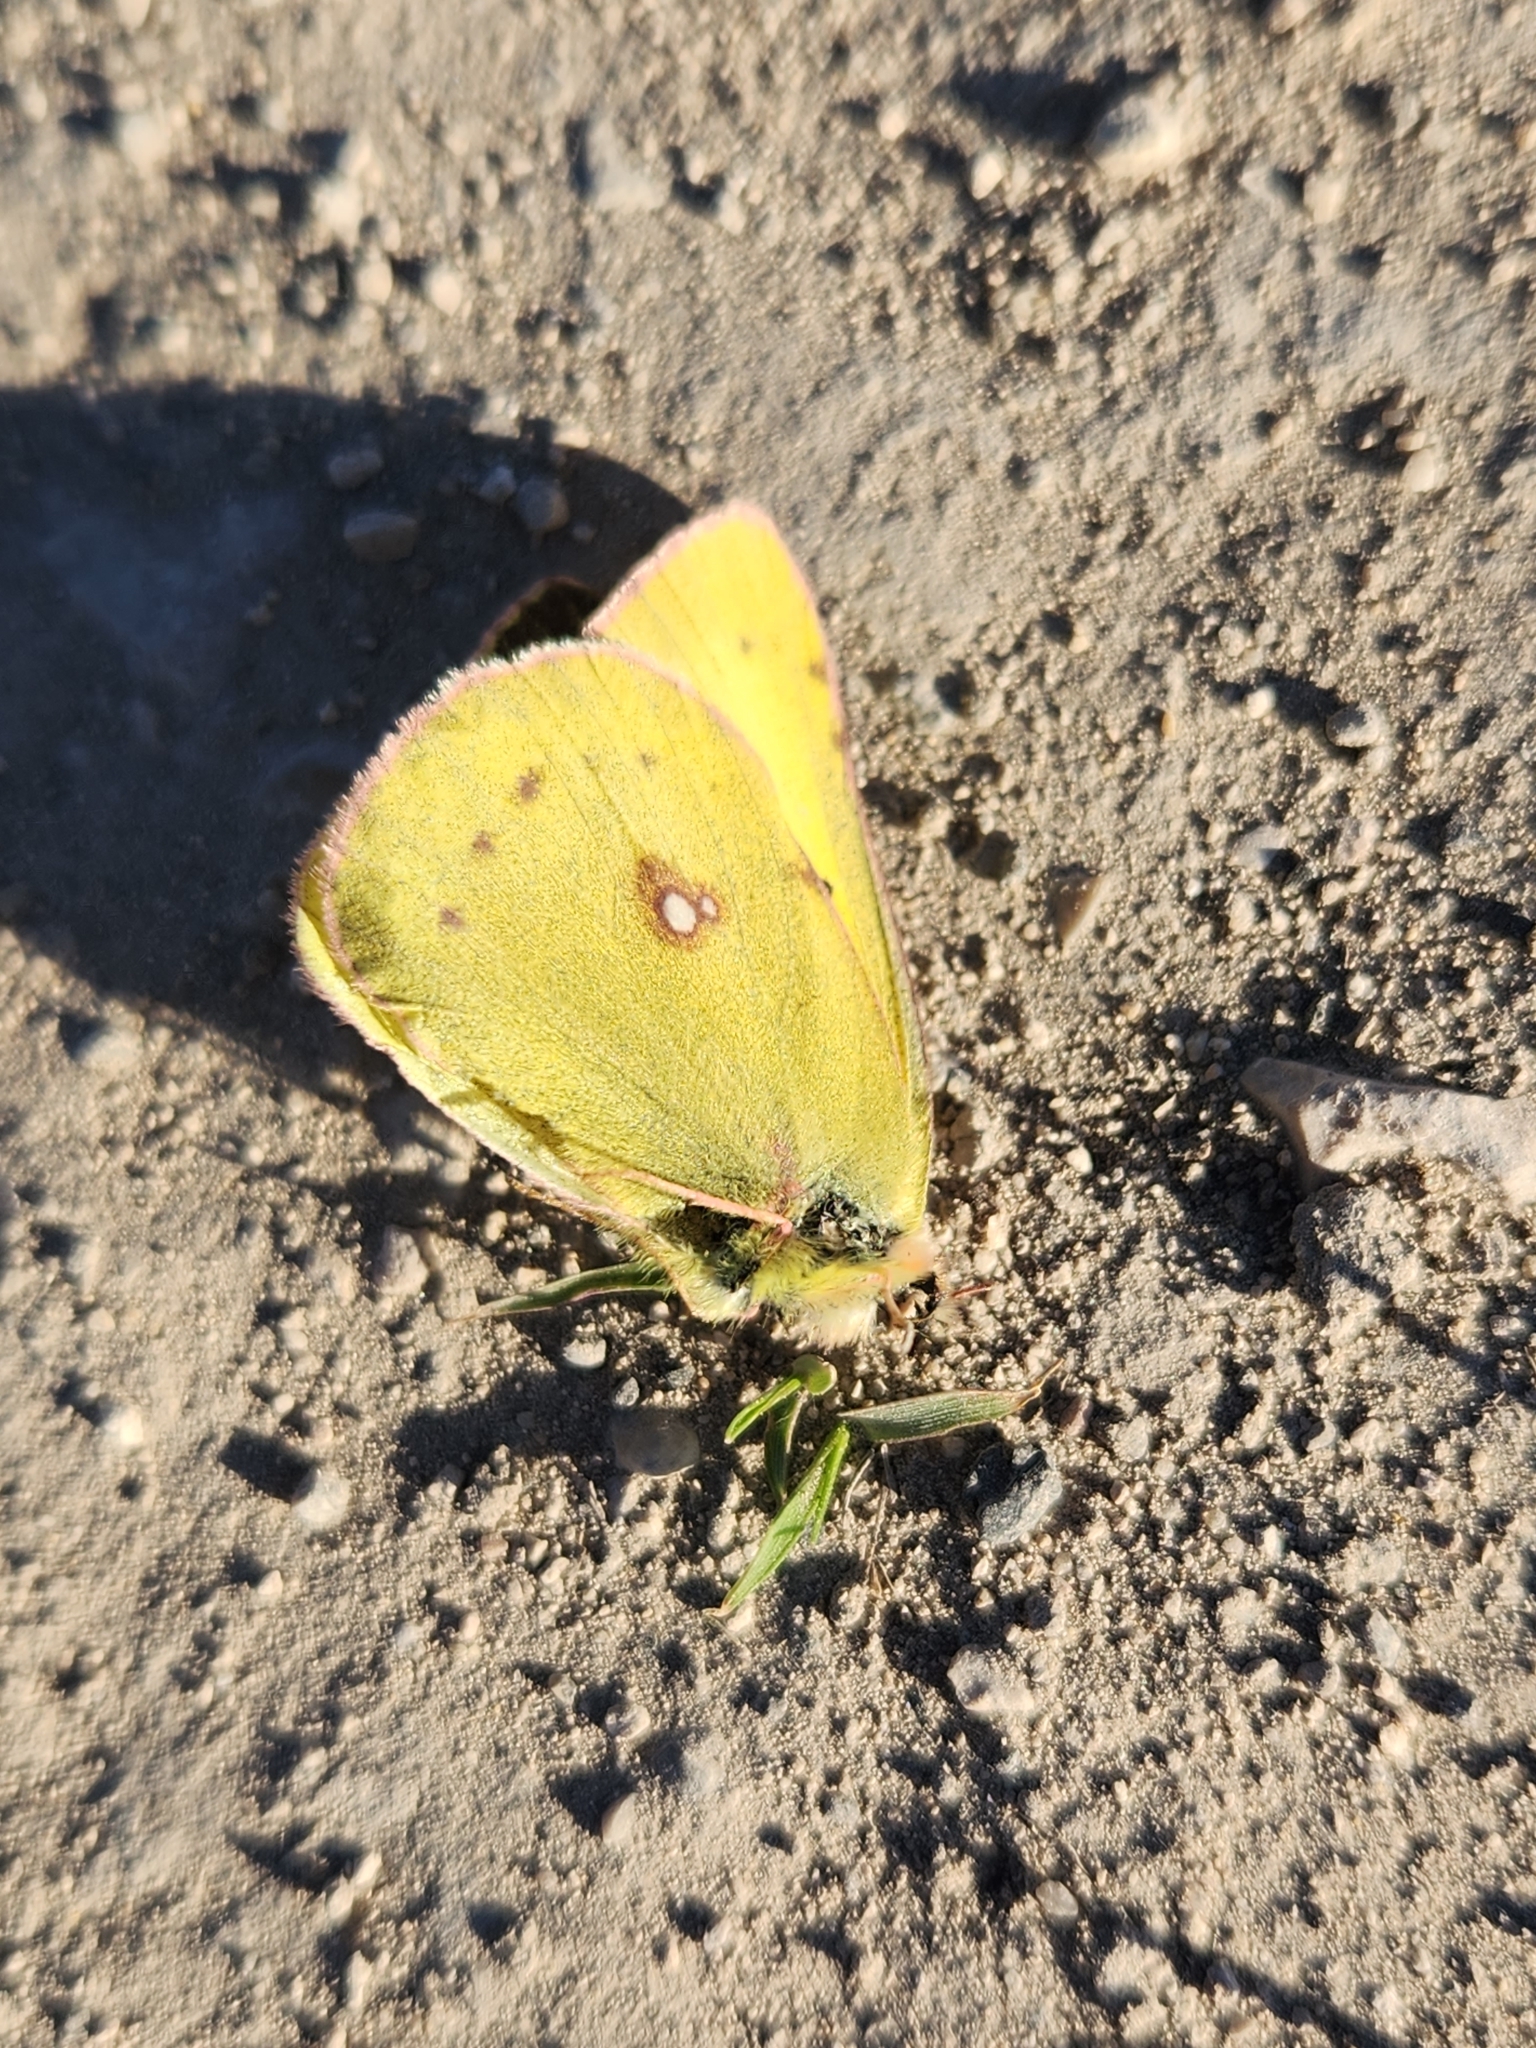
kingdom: Animalia
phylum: Arthropoda
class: Insecta
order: Lepidoptera
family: Pieridae
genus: Colias
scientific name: Colias eurytheme
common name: Alfalfa butterfly
